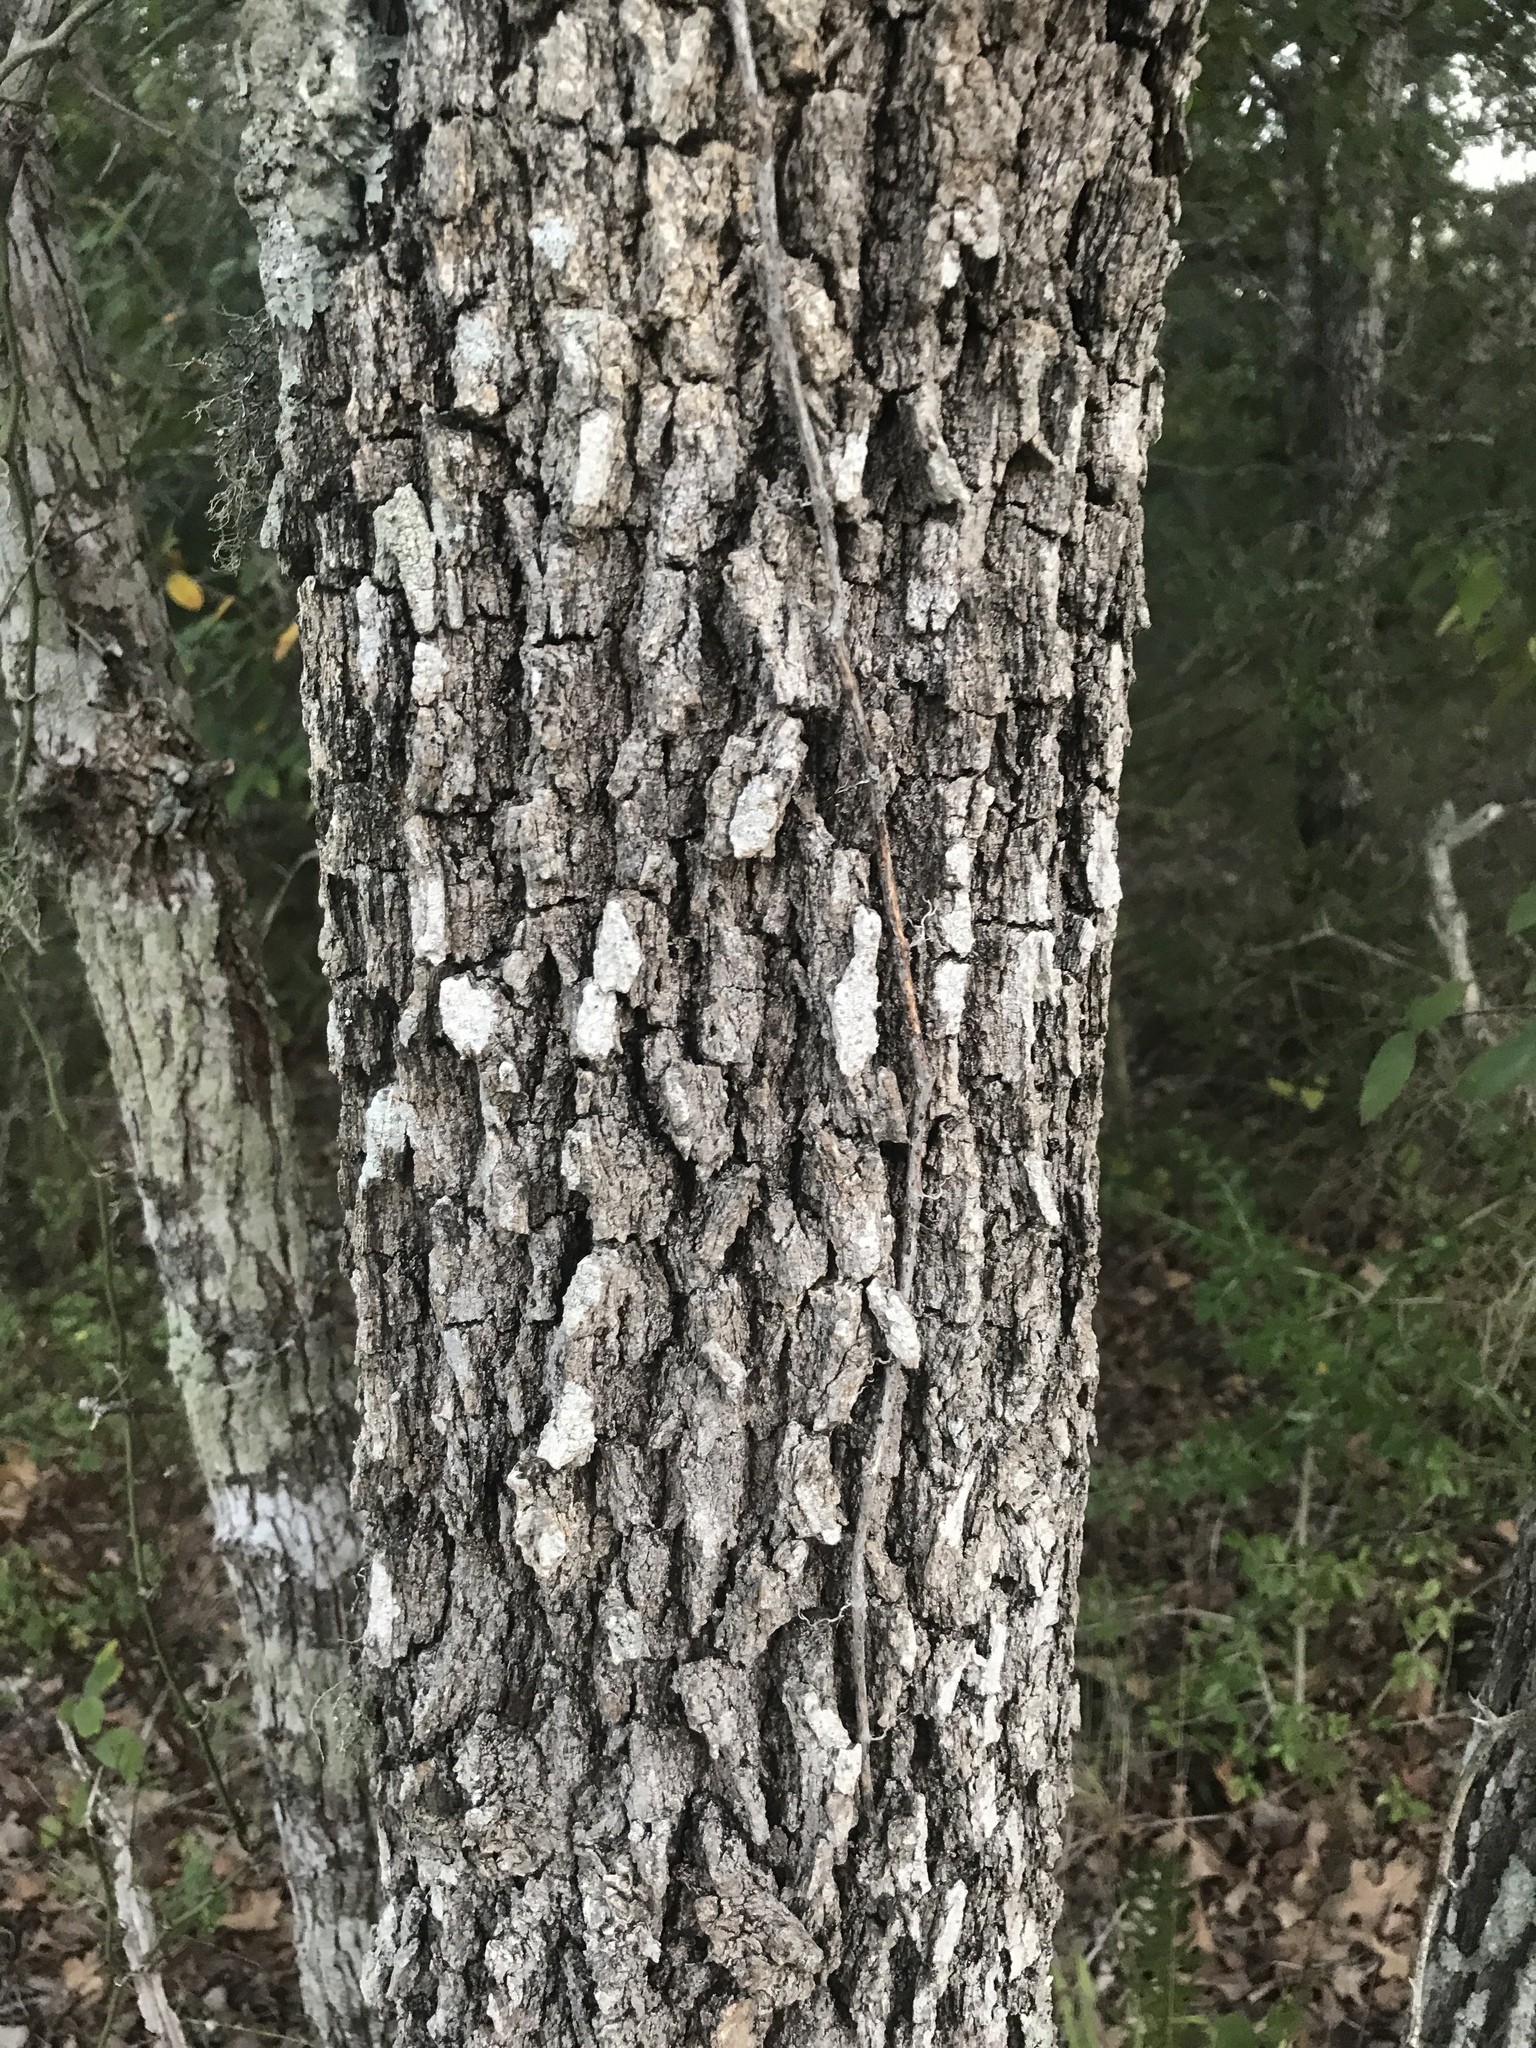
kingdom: Plantae
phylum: Tracheophyta
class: Magnoliopsida
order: Fagales
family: Fagaceae
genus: Quercus
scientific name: Quercus stellata
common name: Post oak
